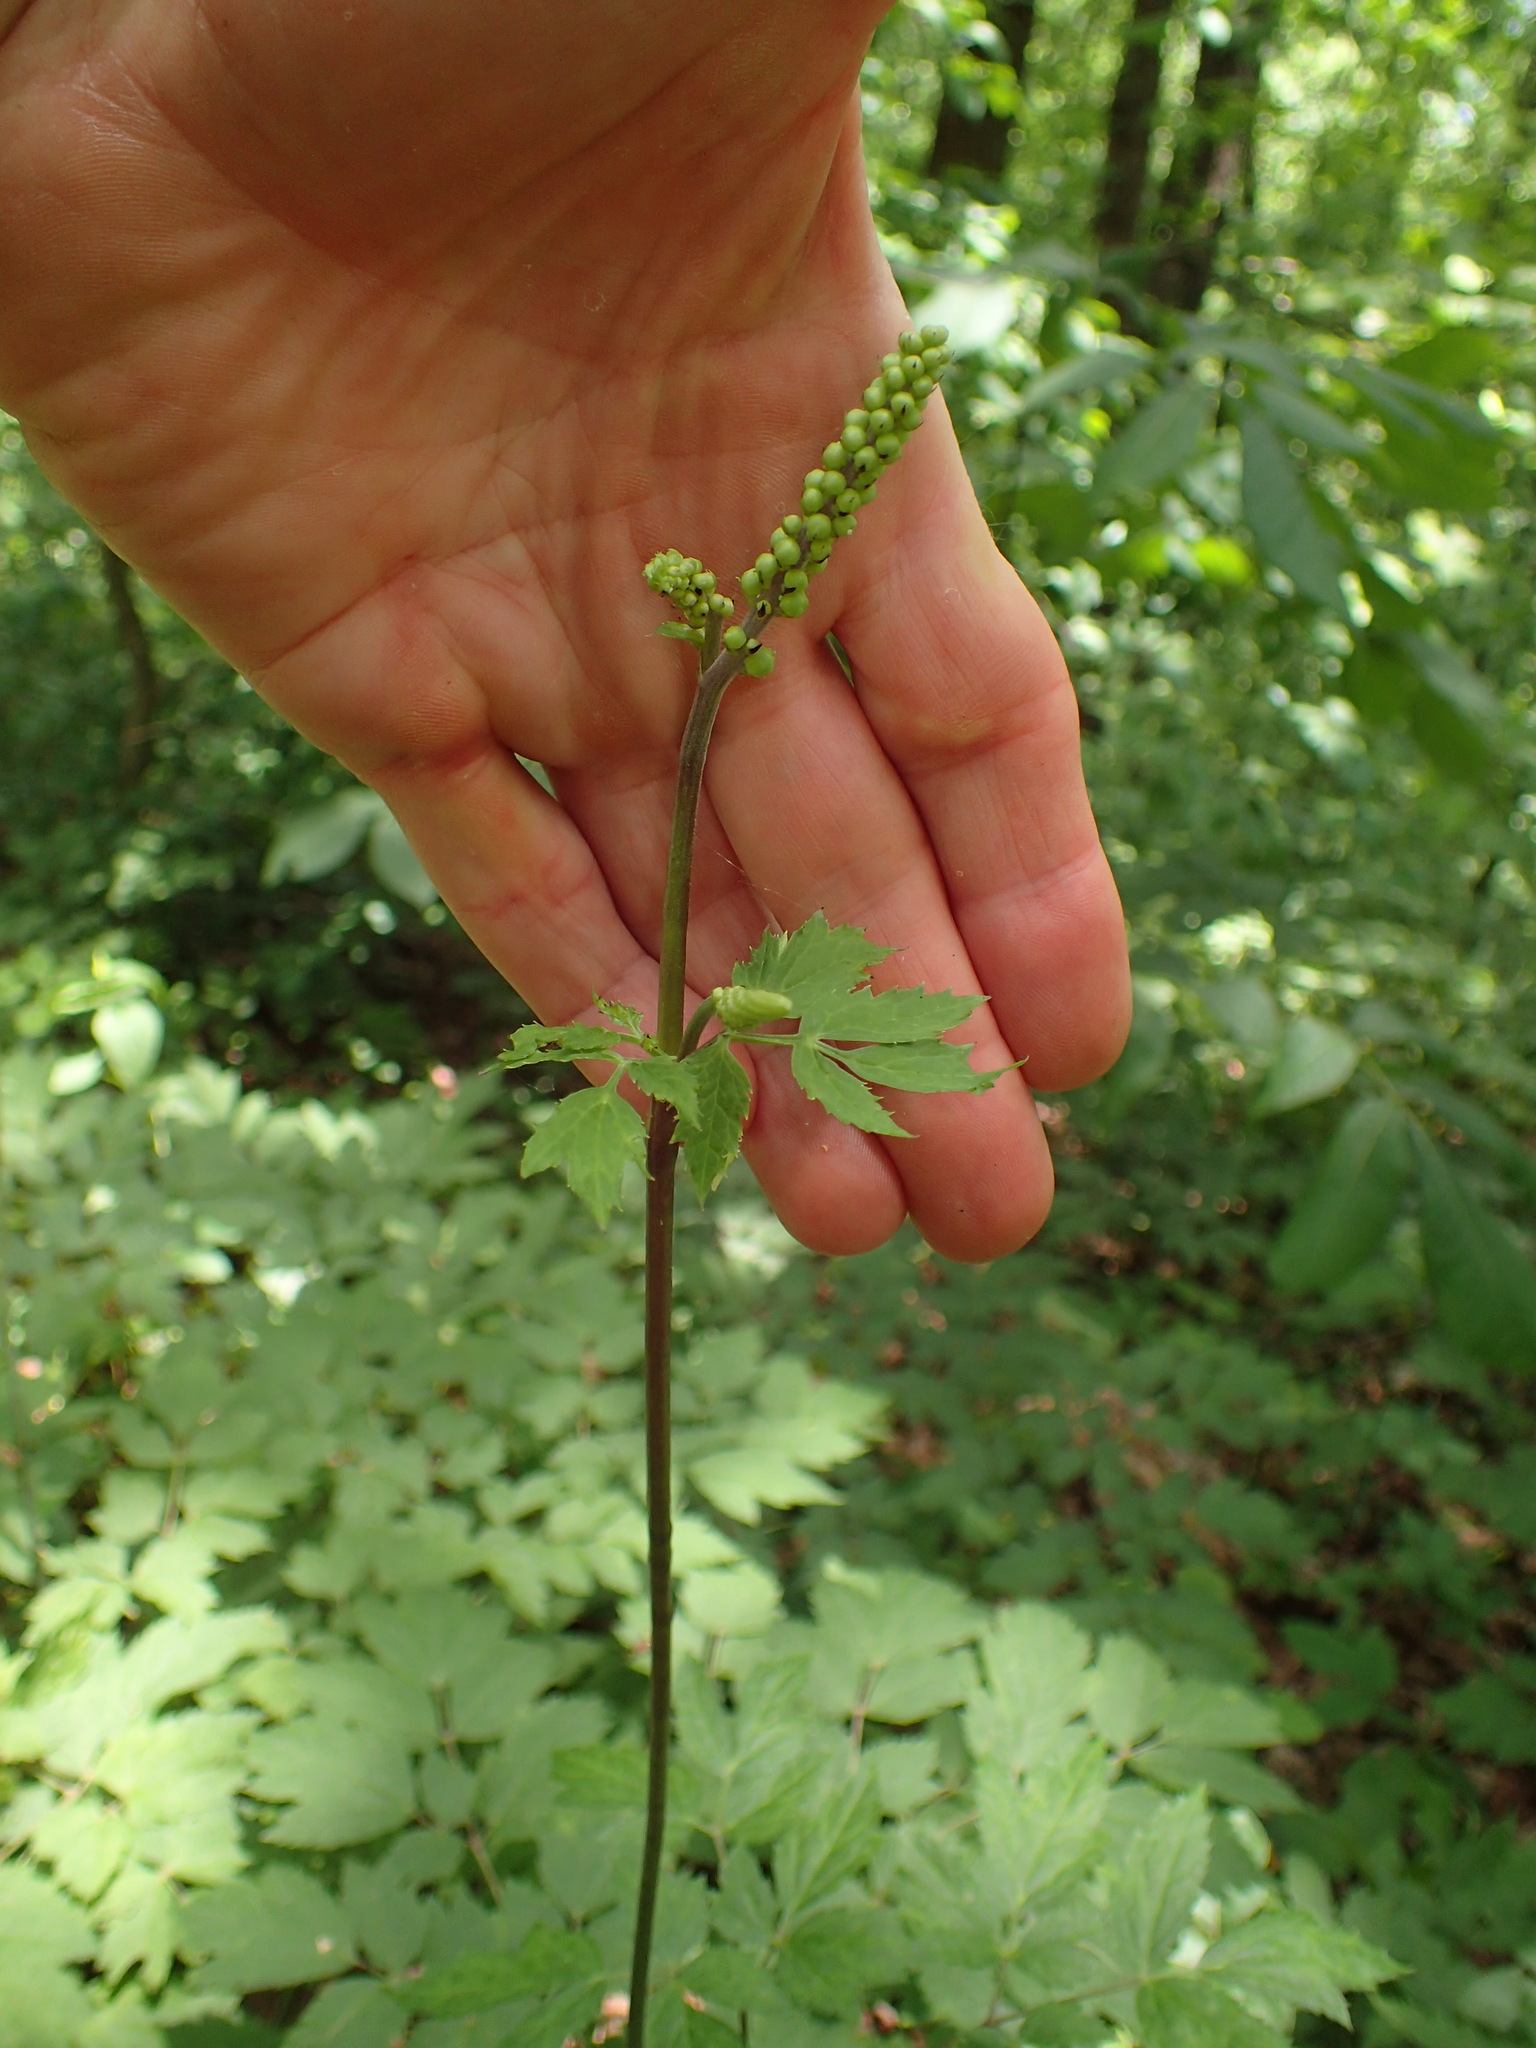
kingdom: Plantae
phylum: Tracheophyta
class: Magnoliopsida
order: Ranunculales
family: Ranunculaceae
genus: Actaea
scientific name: Actaea racemosa
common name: Black cohosh
